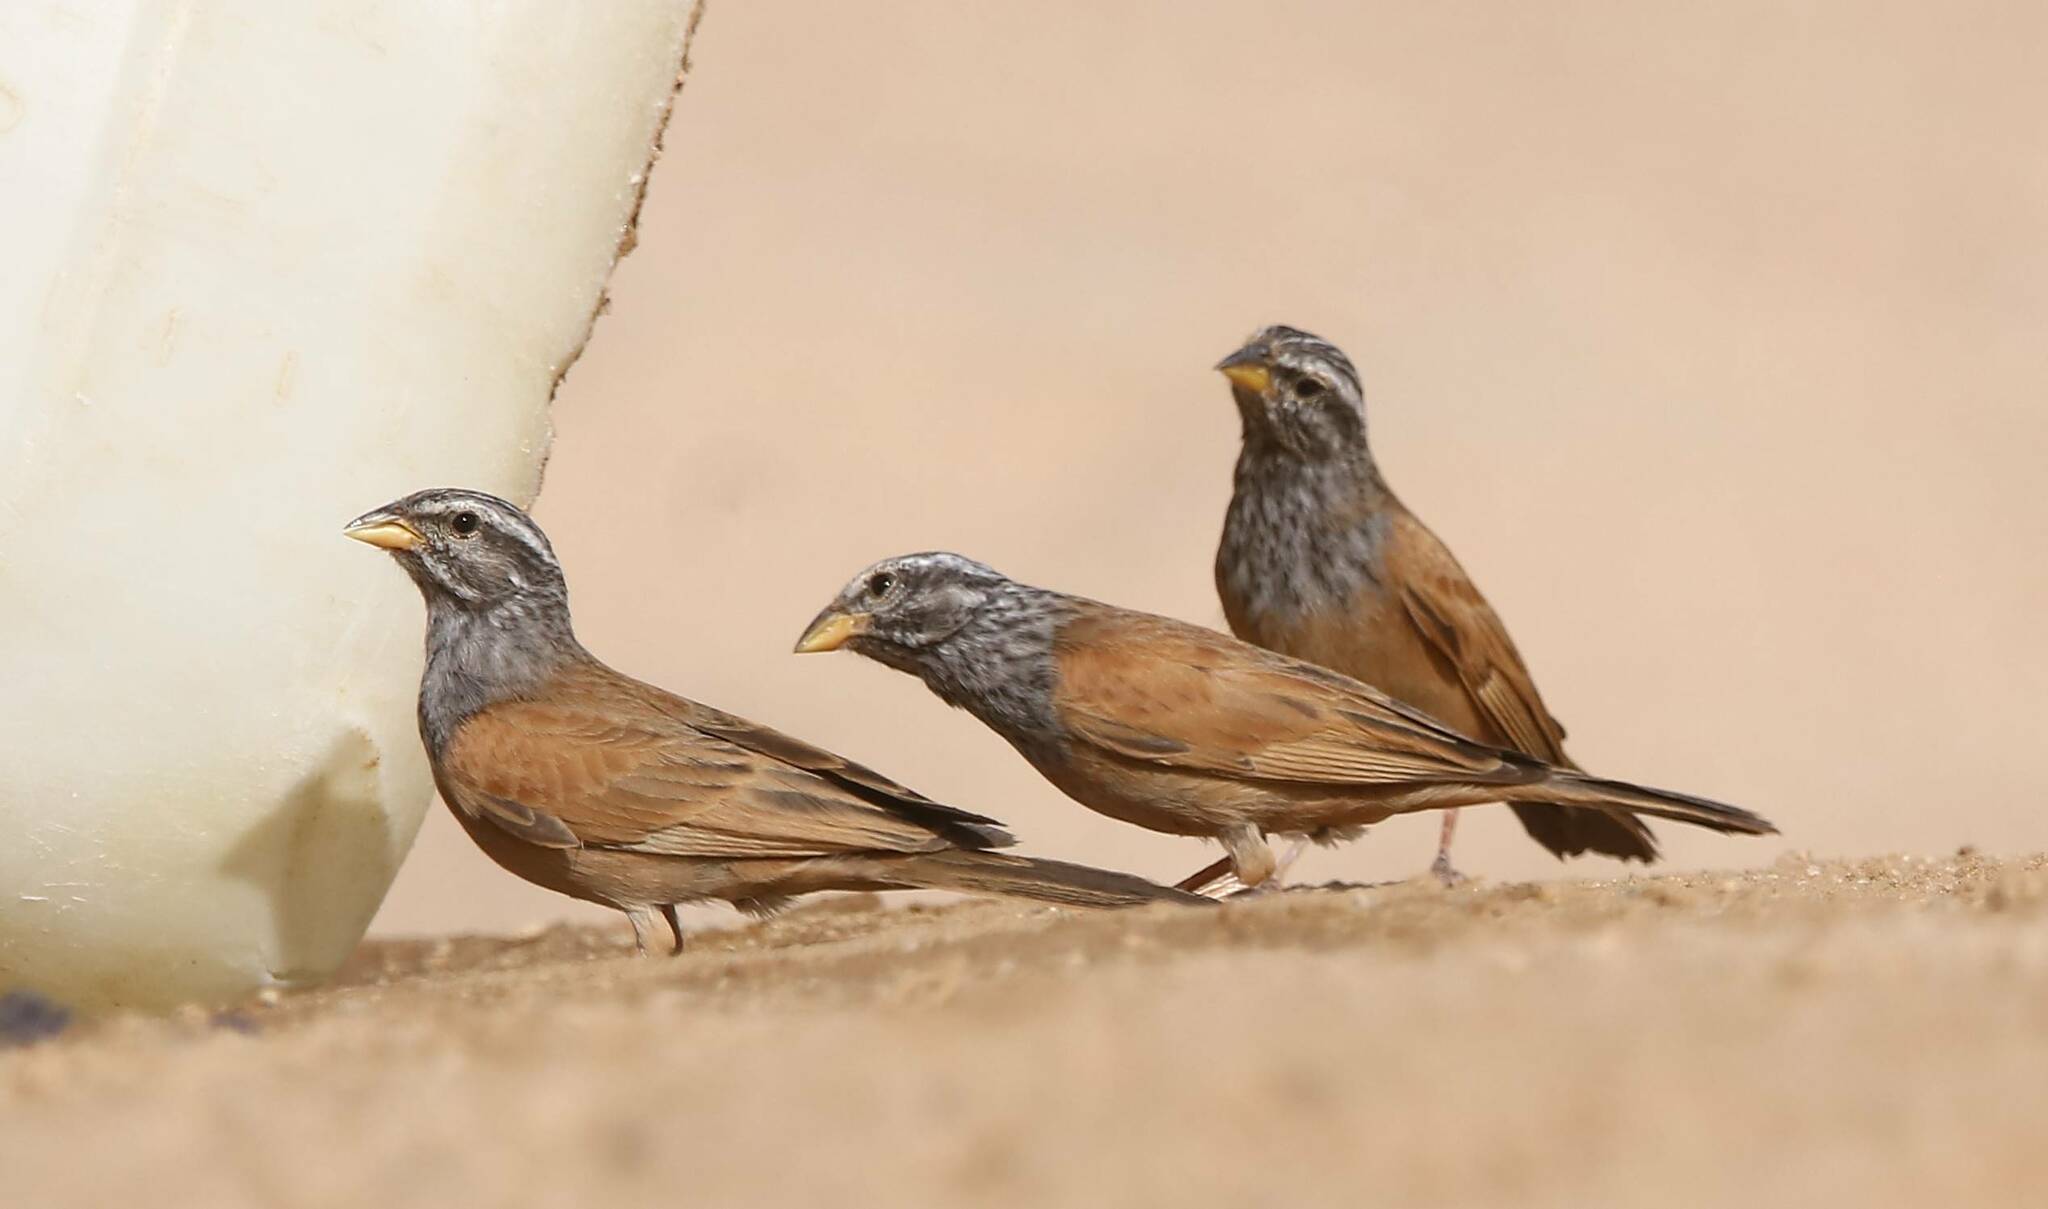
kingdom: Animalia
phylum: Chordata
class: Aves
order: Passeriformes
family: Emberizidae
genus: Emberiza
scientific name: Emberiza sahari
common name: House bunting
